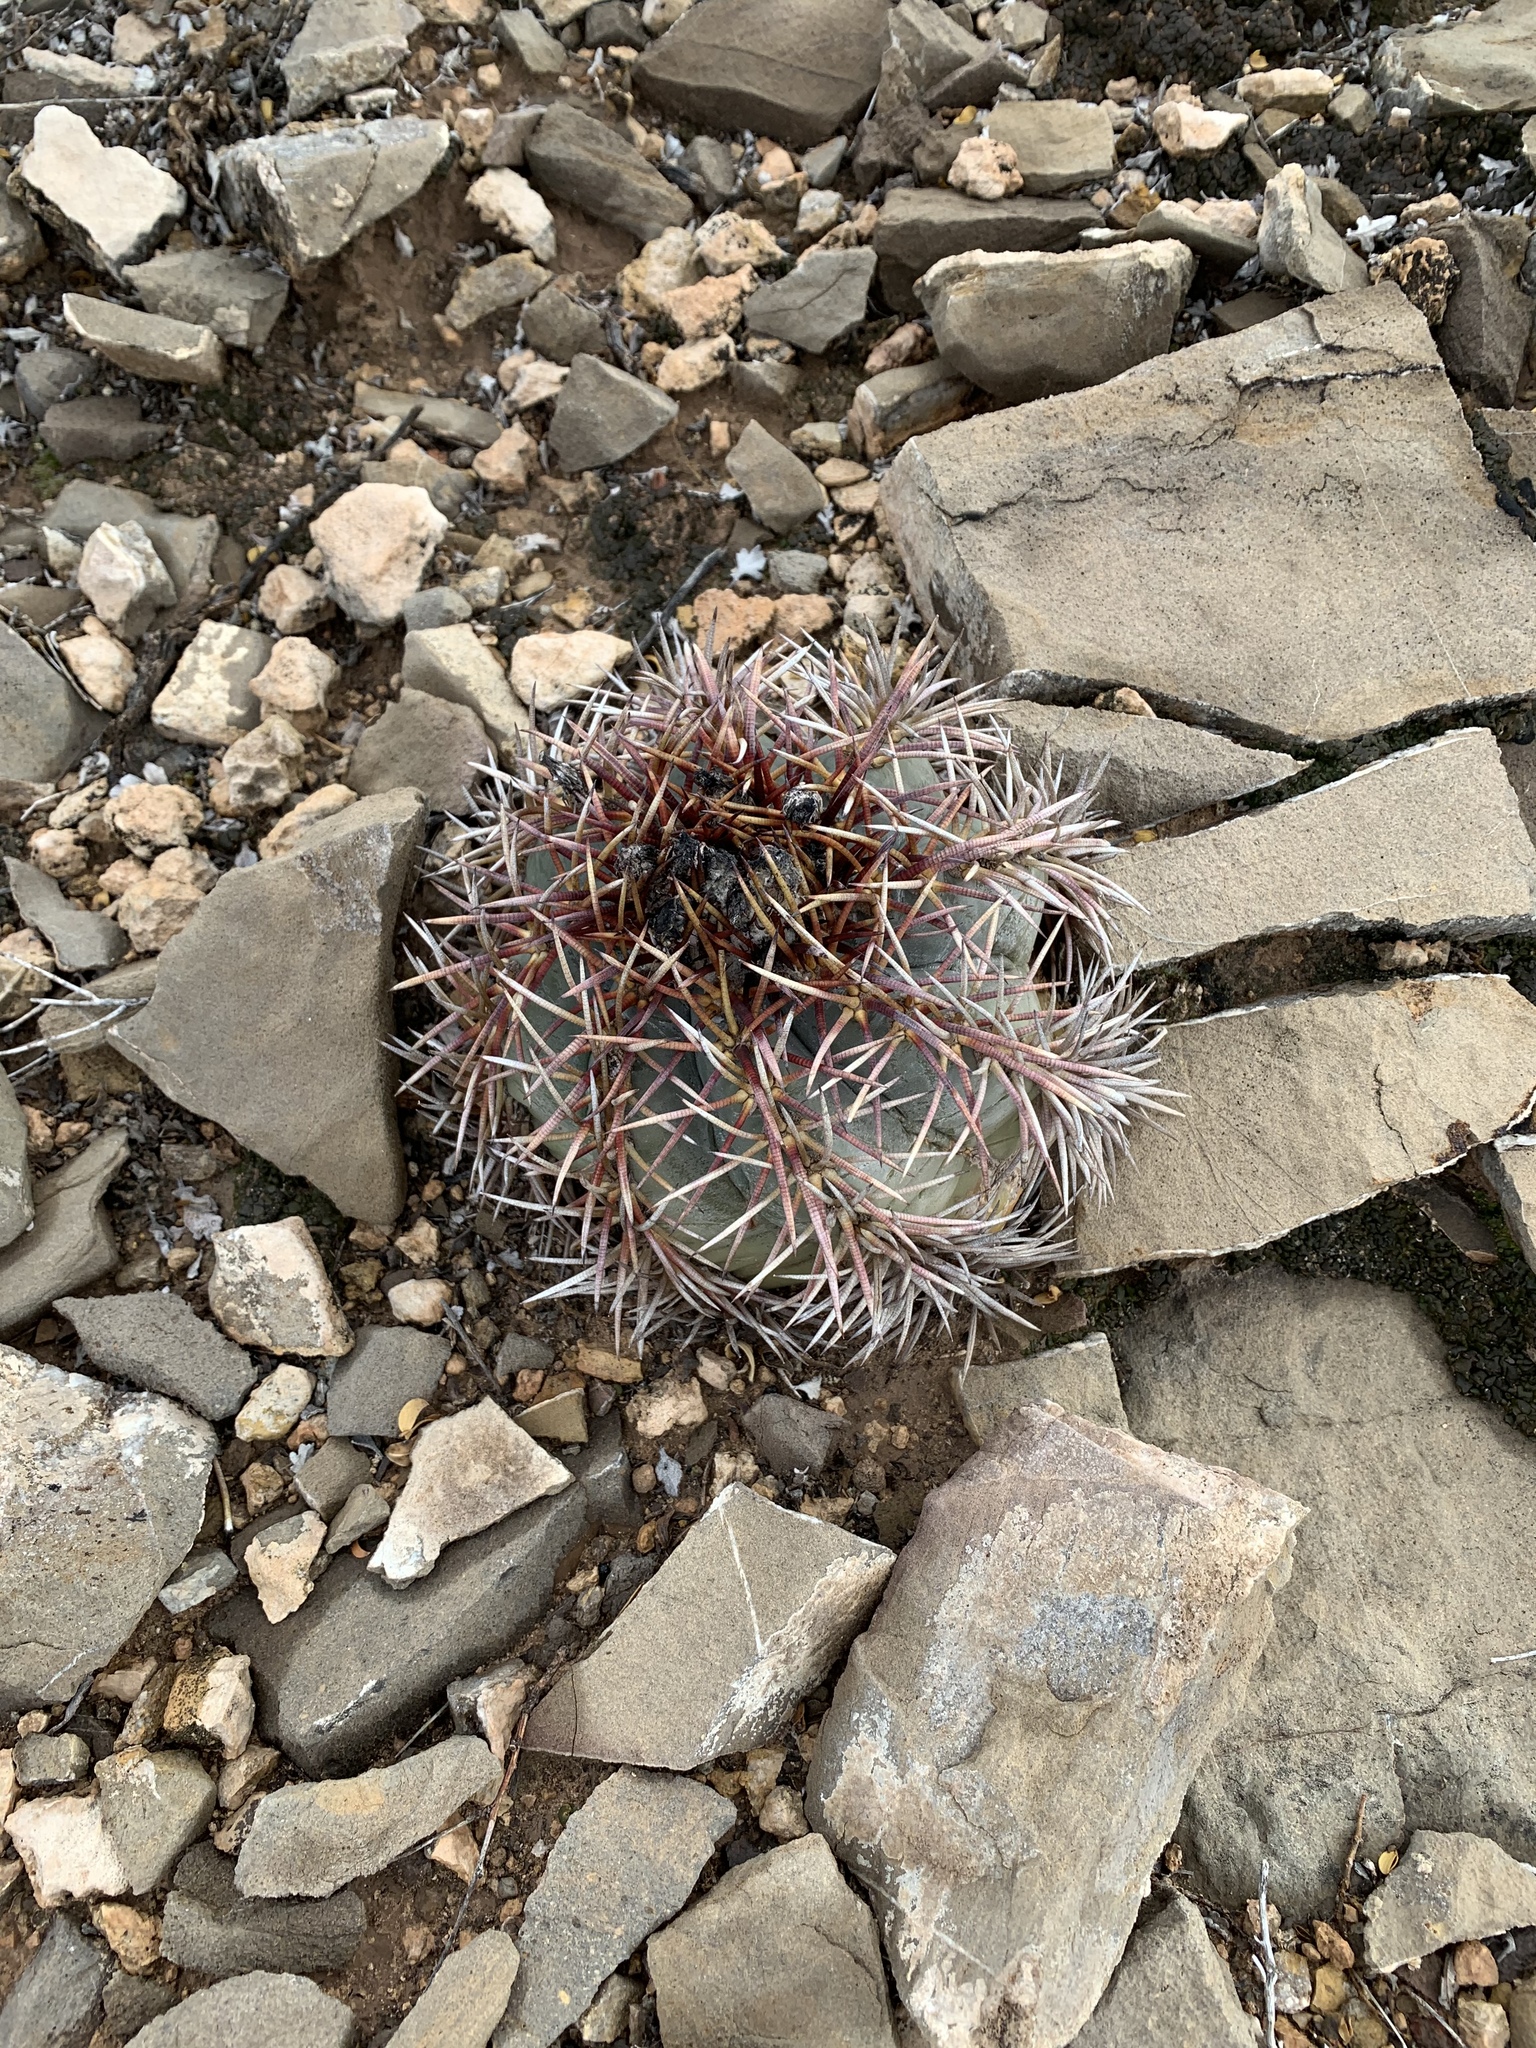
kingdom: Plantae
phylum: Tracheophyta
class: Magnoliopsida
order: Caryophyllales
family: Cactaceae
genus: Echinocactus
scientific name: Echinocactus horizonthalonius
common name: Devilshead
